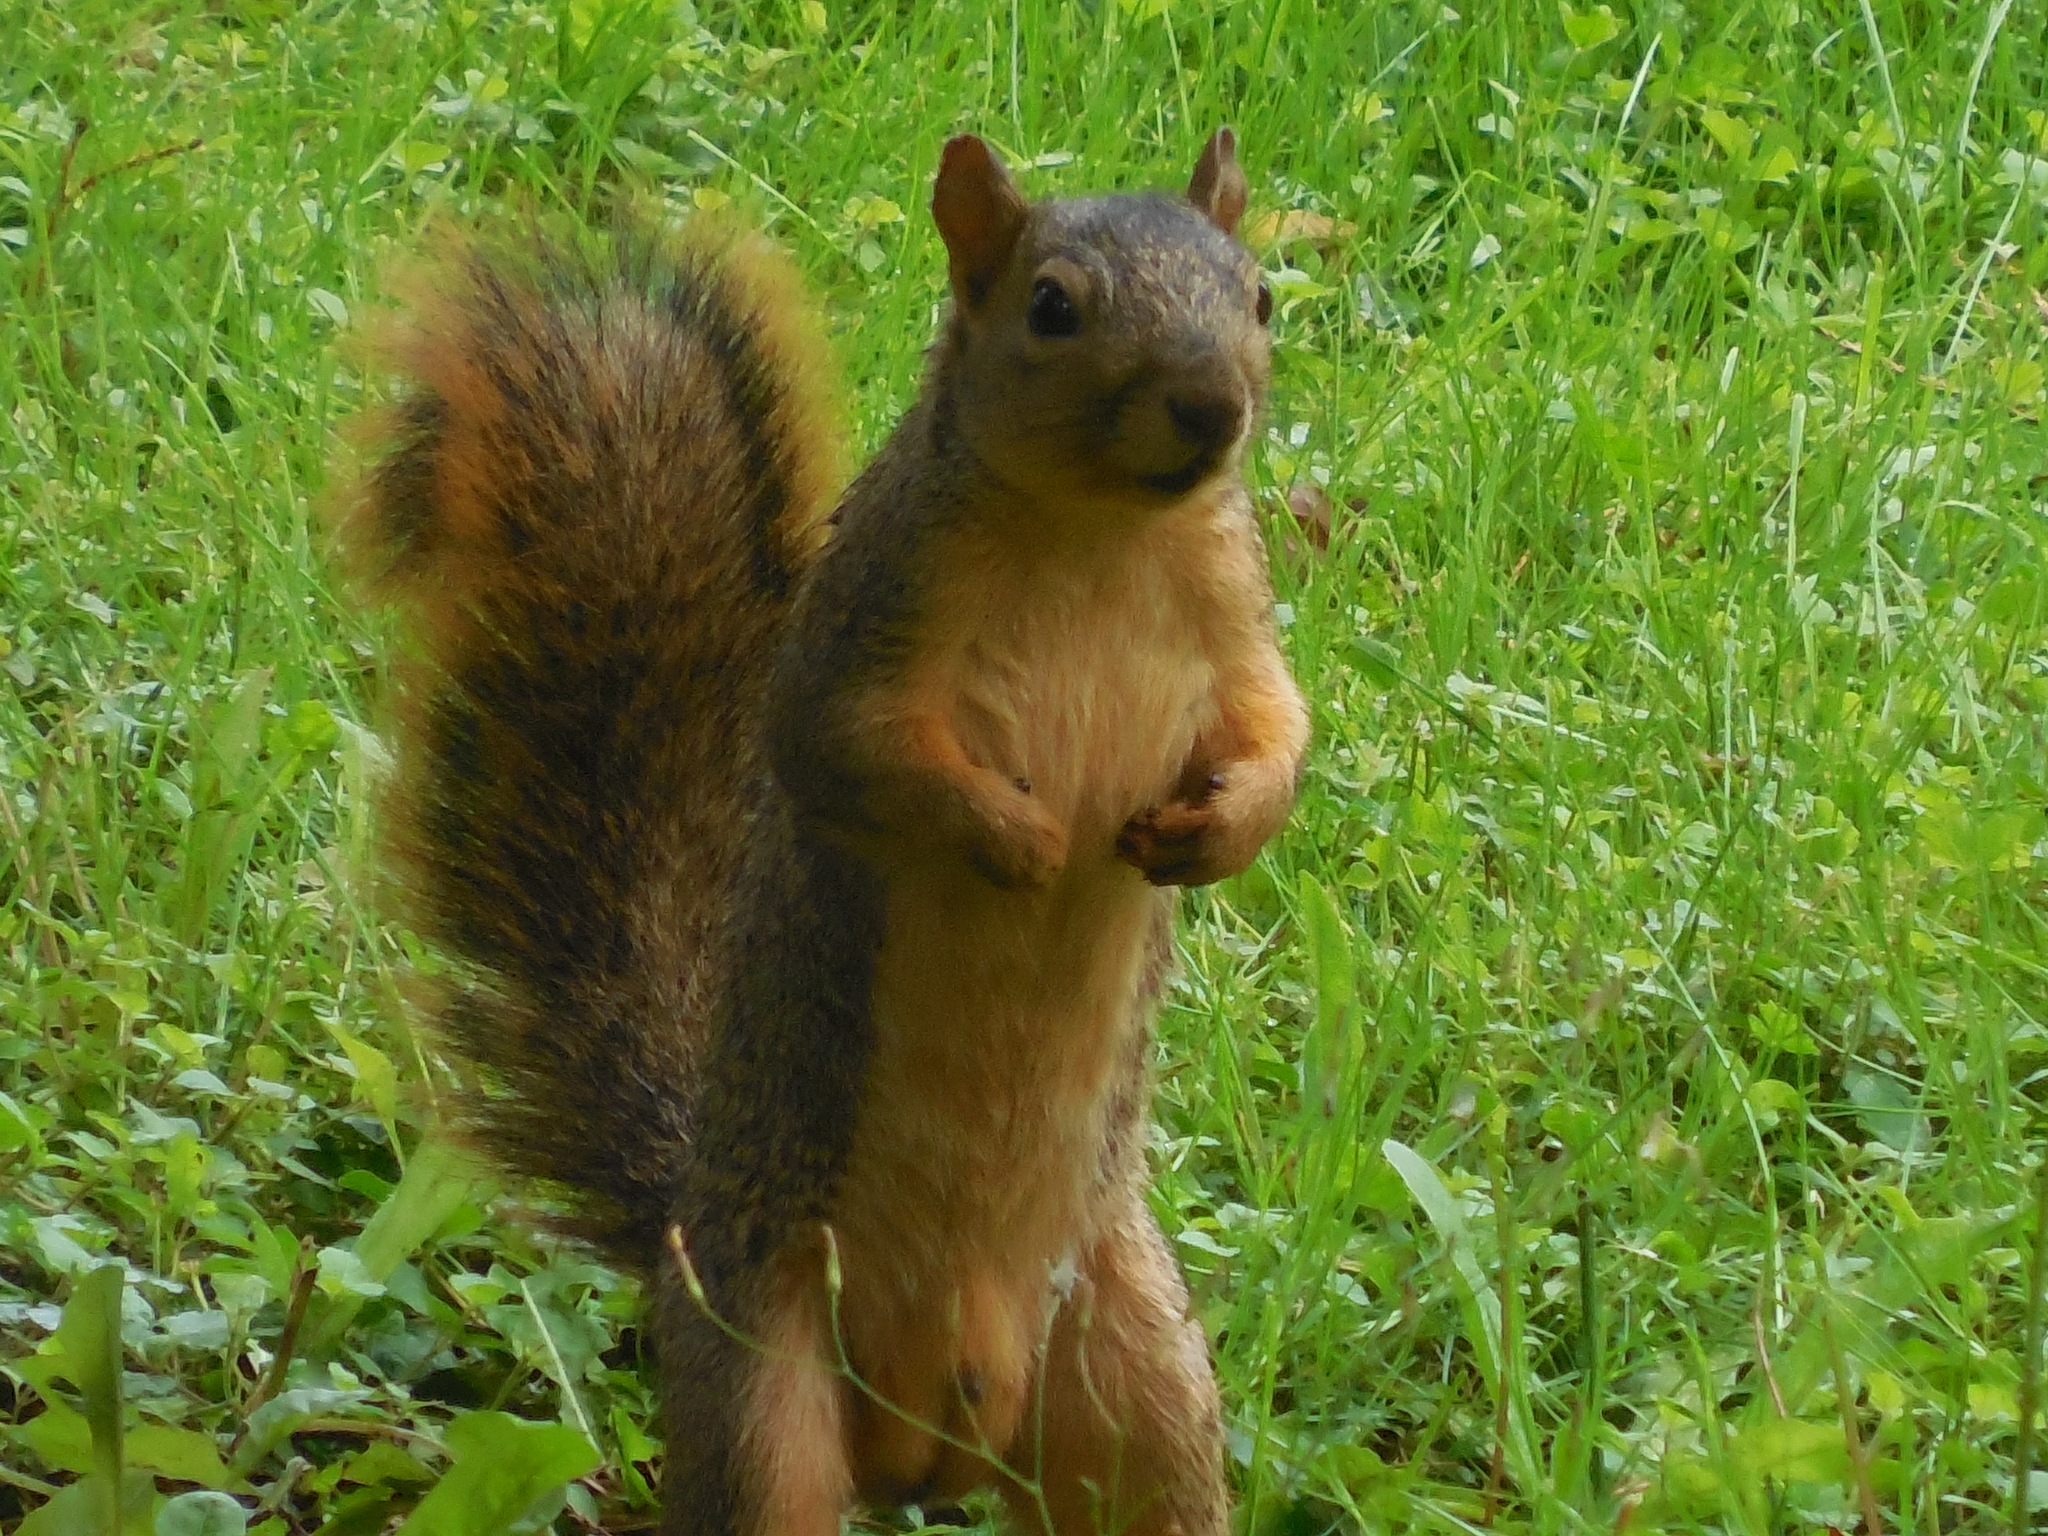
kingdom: Animalia
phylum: Chordata
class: Mammalia
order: Rodentia
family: Sciuridae
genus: Sciurus
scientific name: Sciurus niger
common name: Fox squirrel
